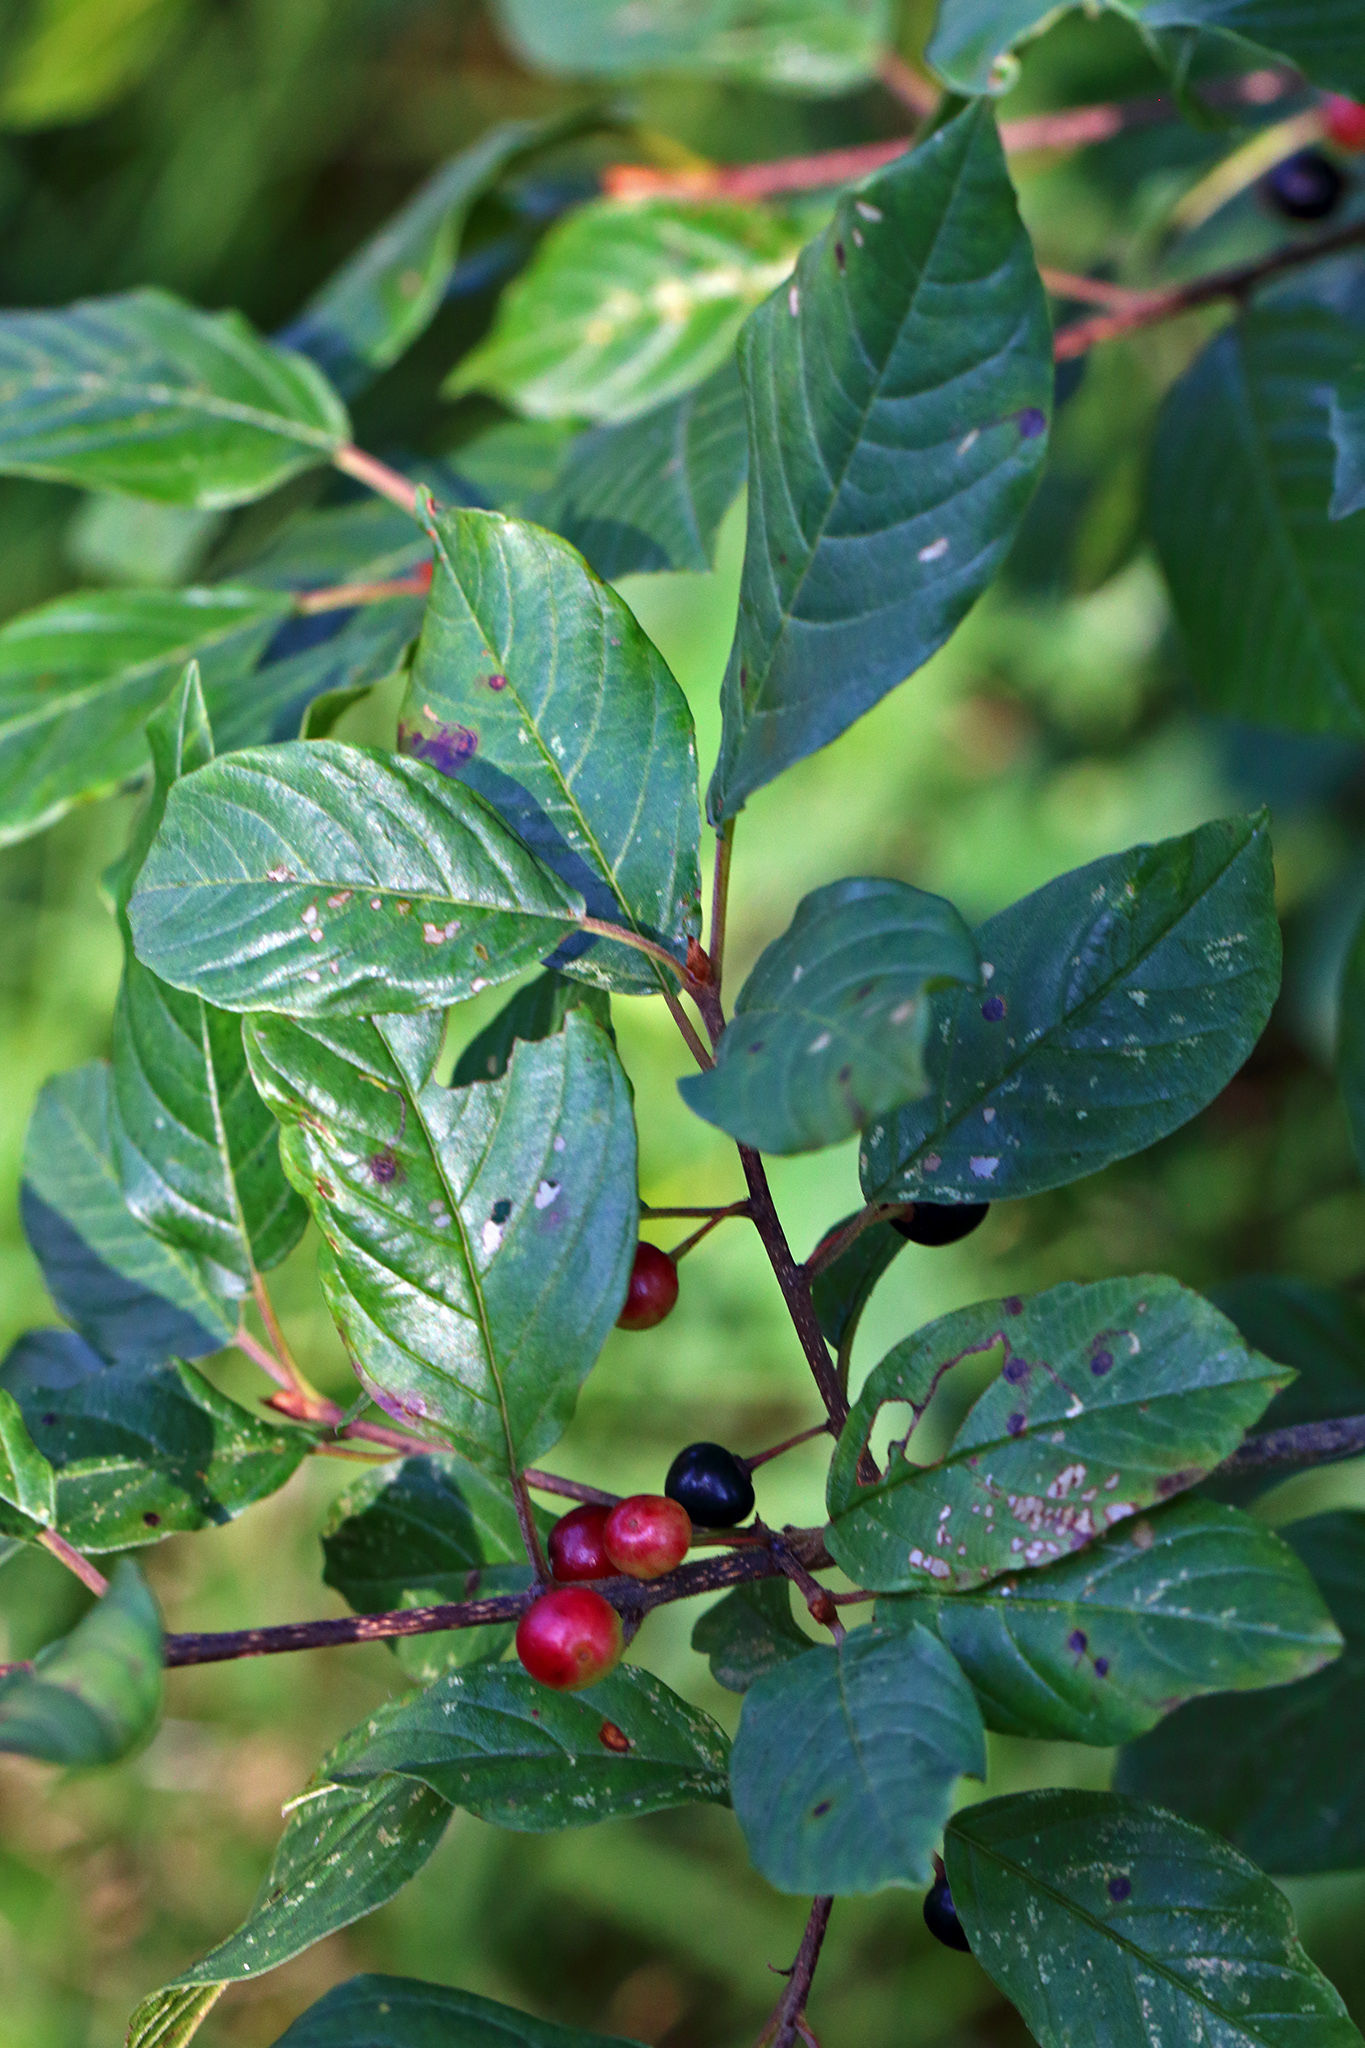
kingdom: Plantae
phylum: Tracheophyta
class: Magnoliopsida
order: Rosales
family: Rhamnaceae
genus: Frangula
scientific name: Frangula alnus
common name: Alder buckthorn
